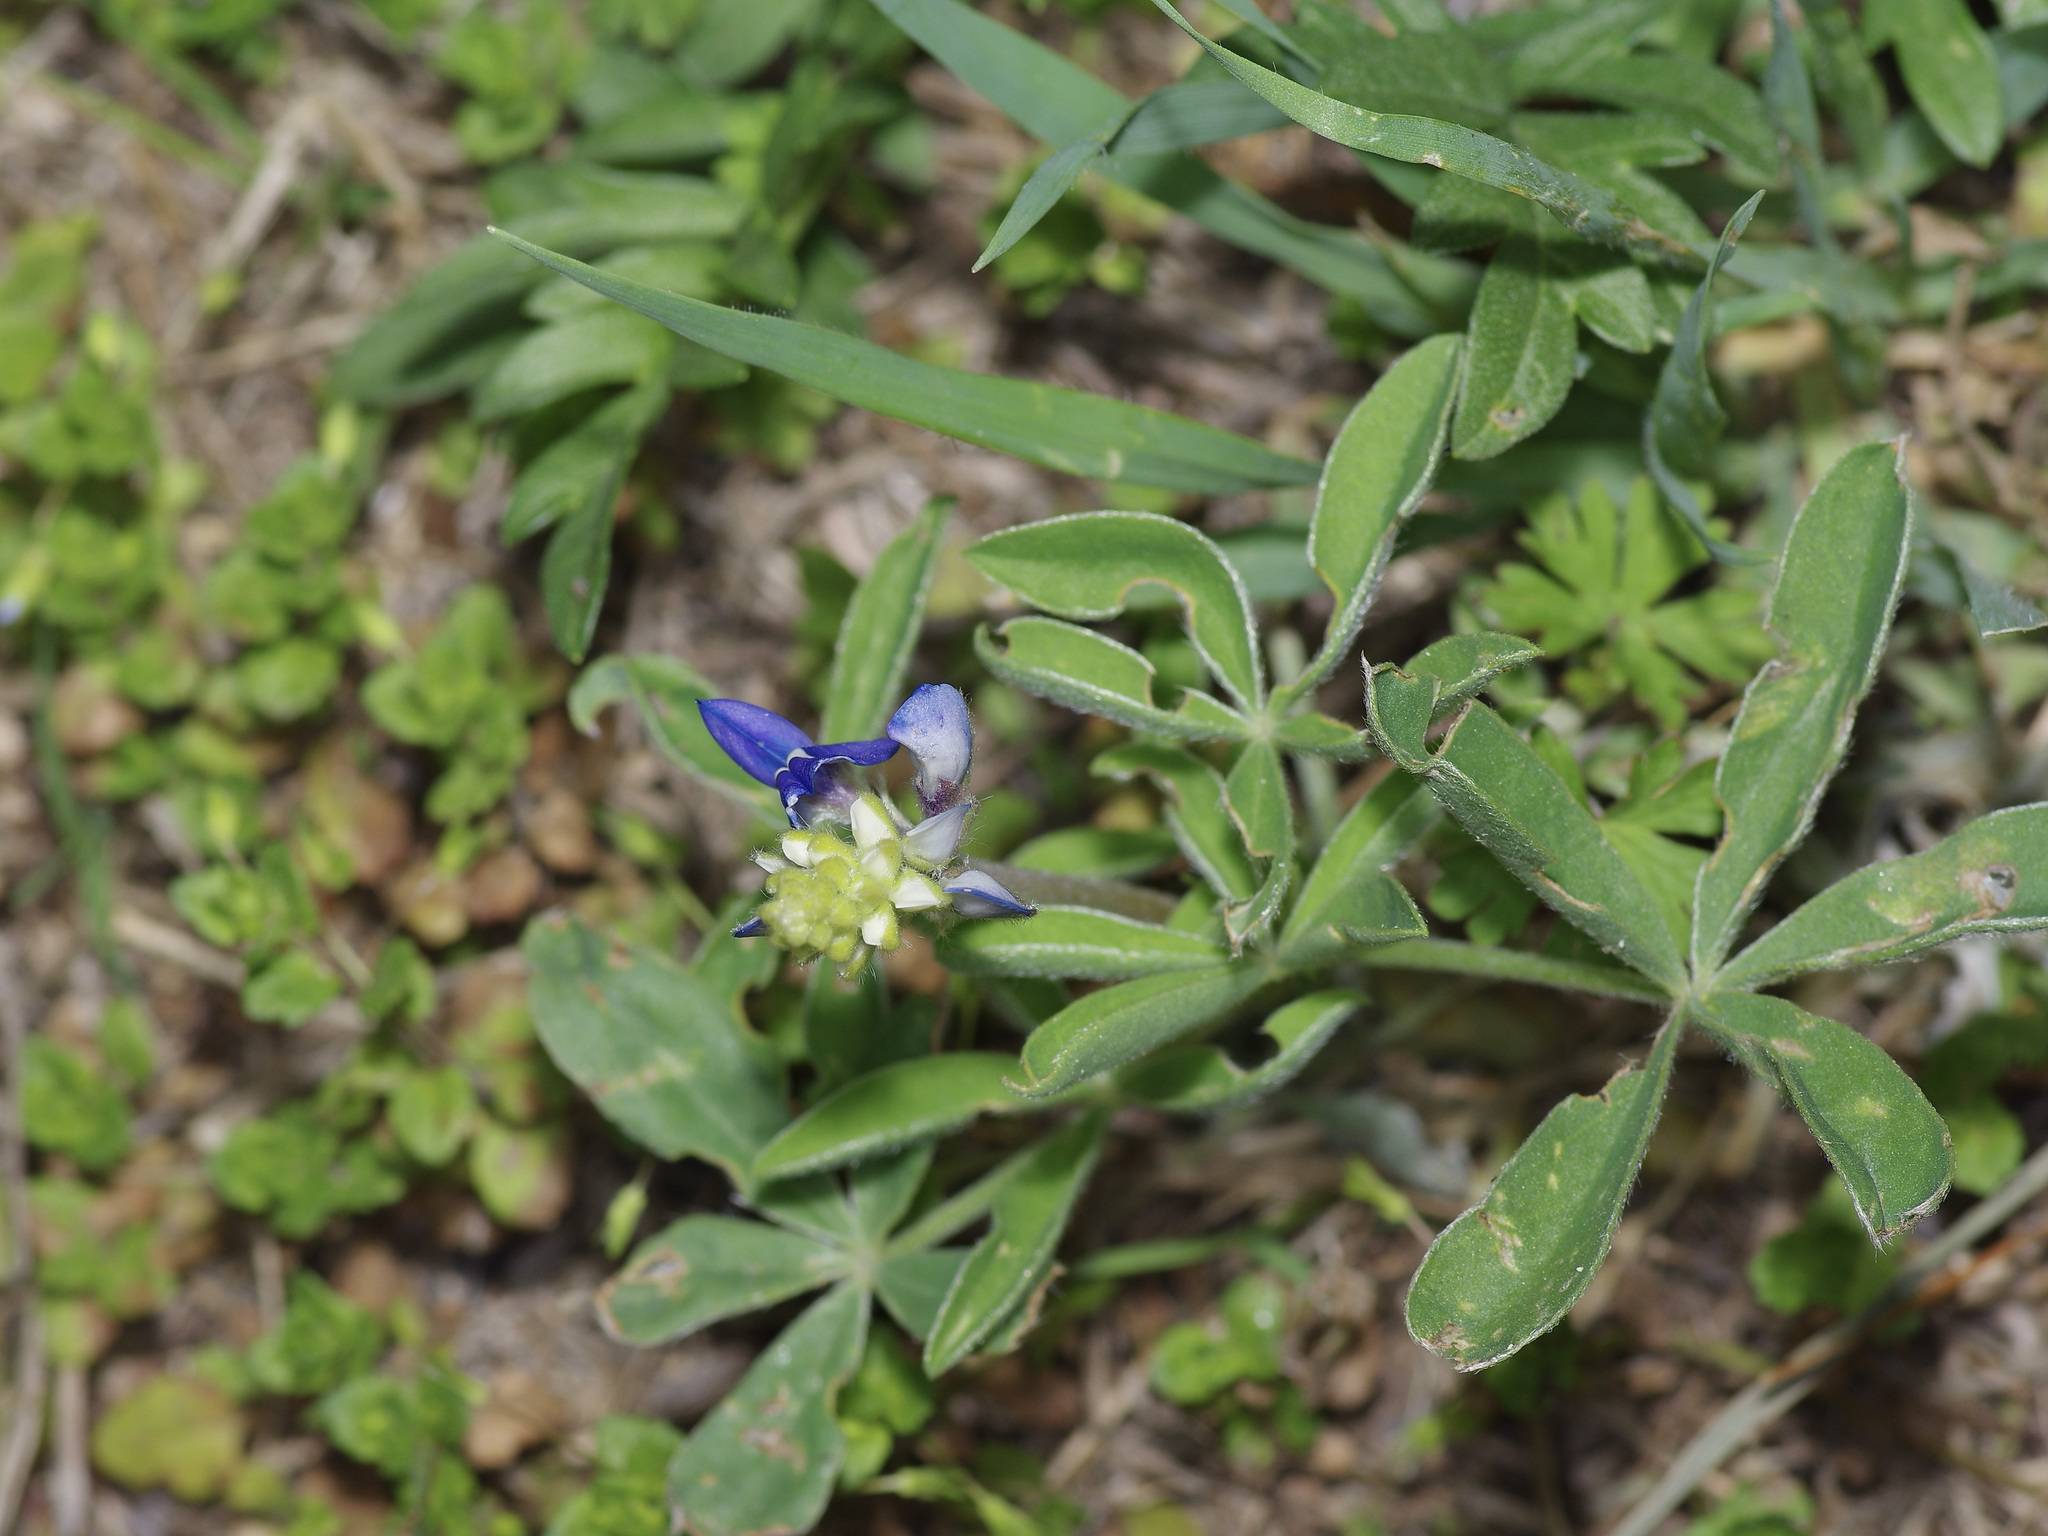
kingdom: Plantae
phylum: Tracheophyta
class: Magnoliopsida
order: Fabales
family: Fabaceae
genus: Lupinus
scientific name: Lupinus texensis
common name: Texas bluebonnet
